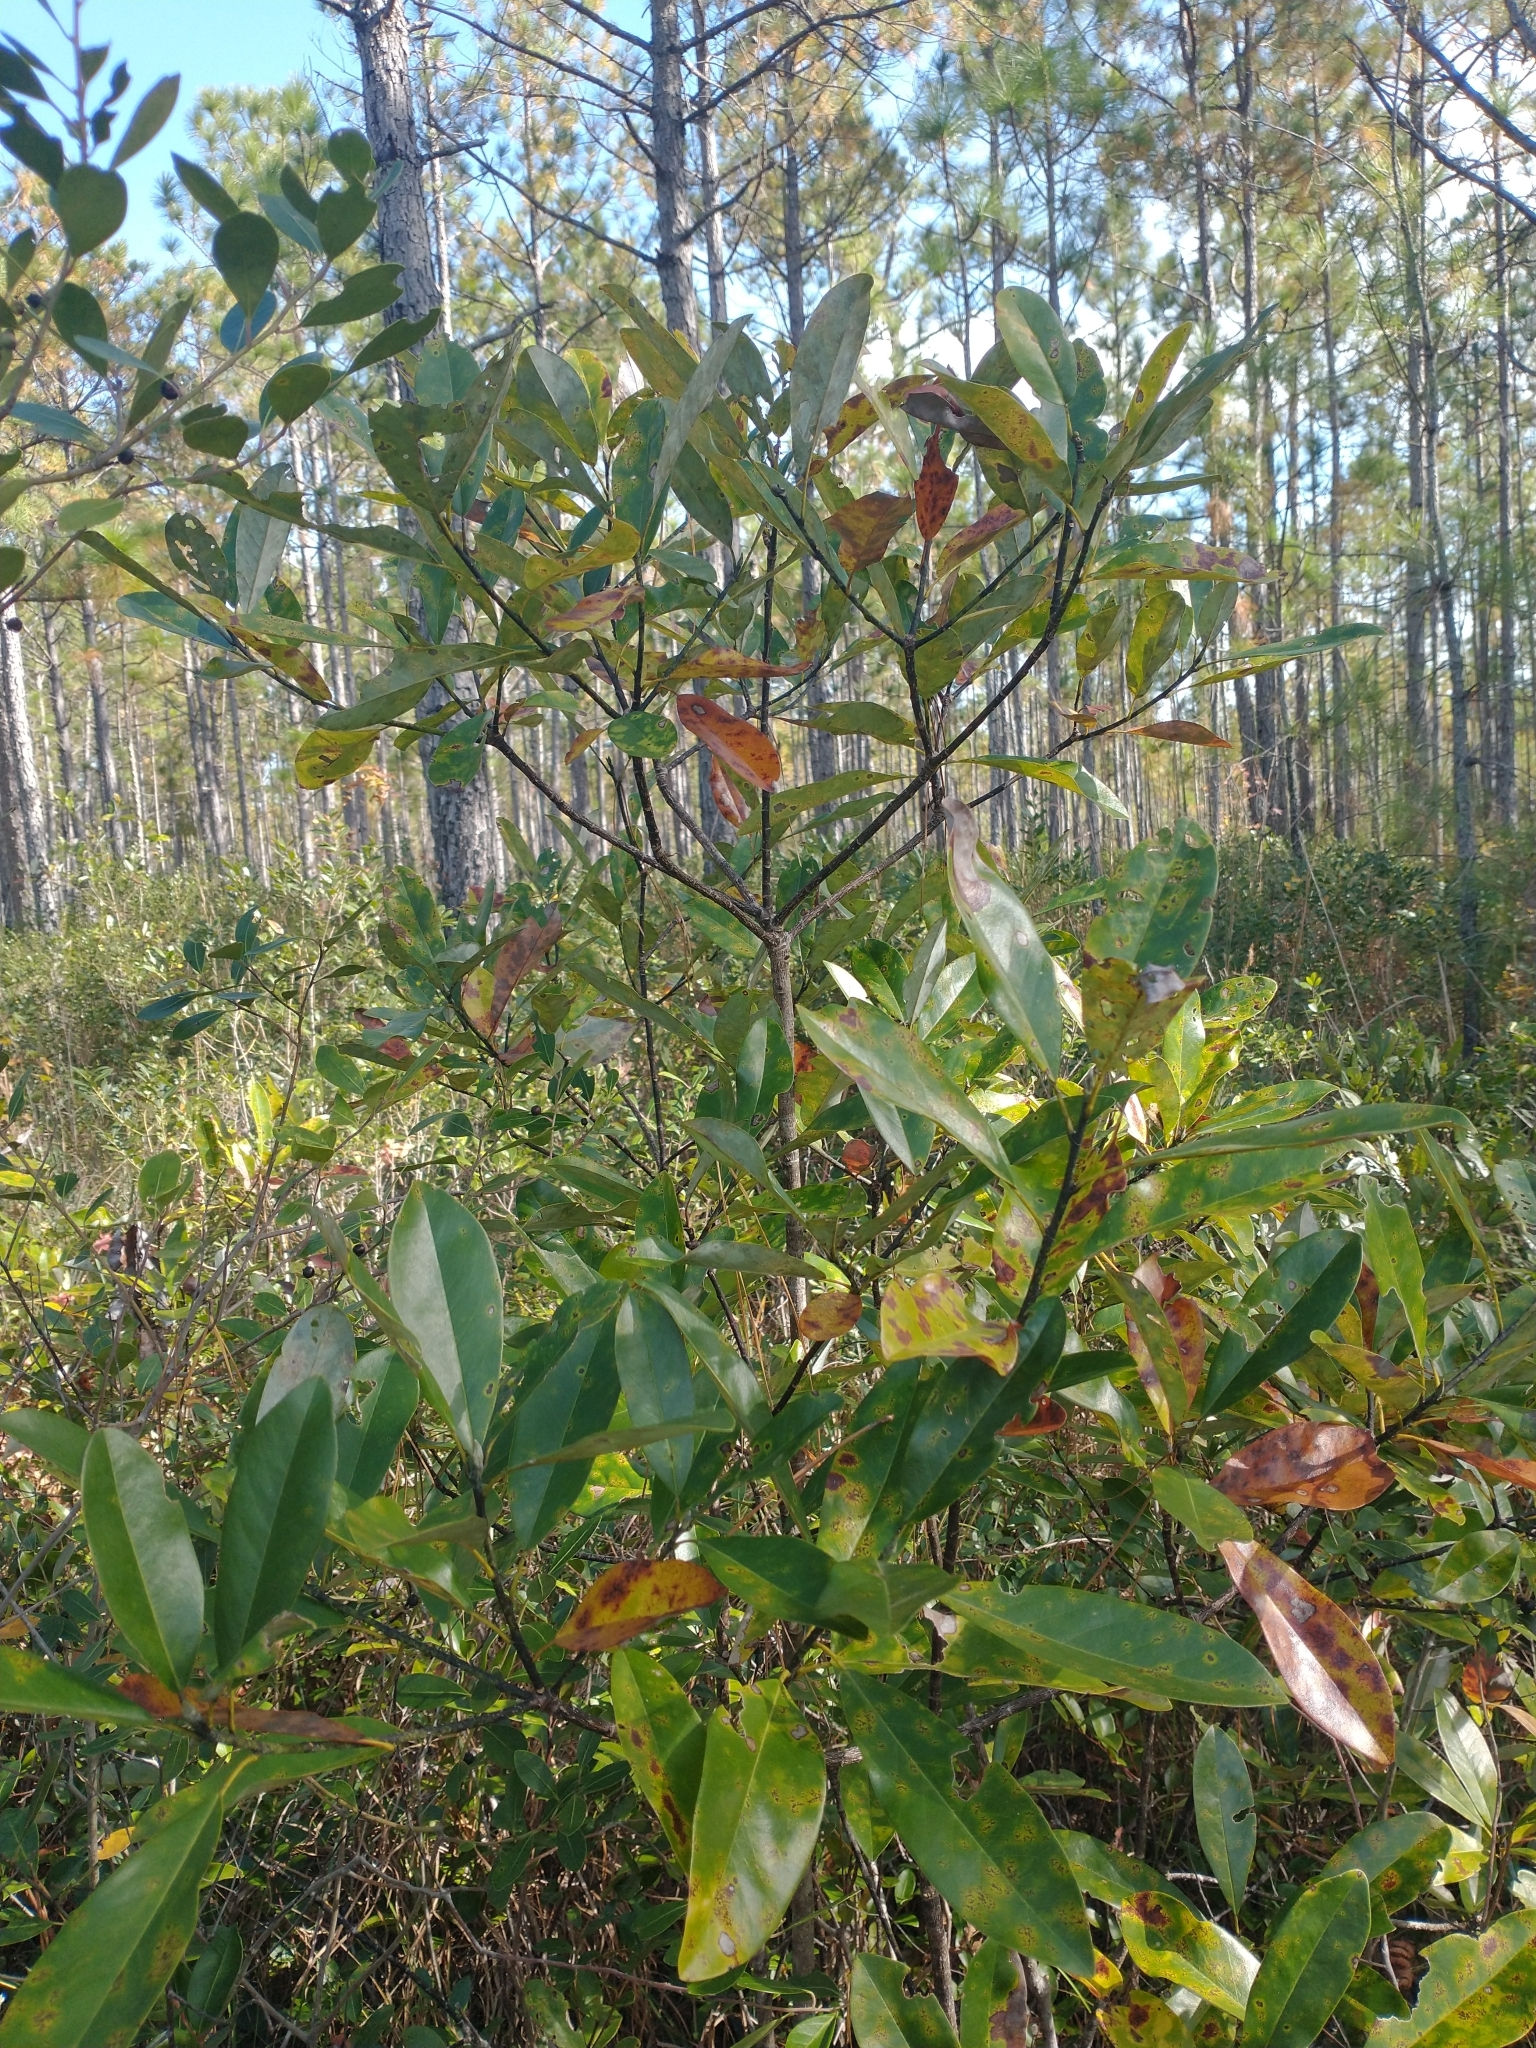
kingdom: Plantae
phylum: Tracheophyta
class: Magnoliopsida
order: Magnoliales
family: Magnoliaceae
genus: Magnolia
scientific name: Magnolia virginiana
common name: Swamp bay
